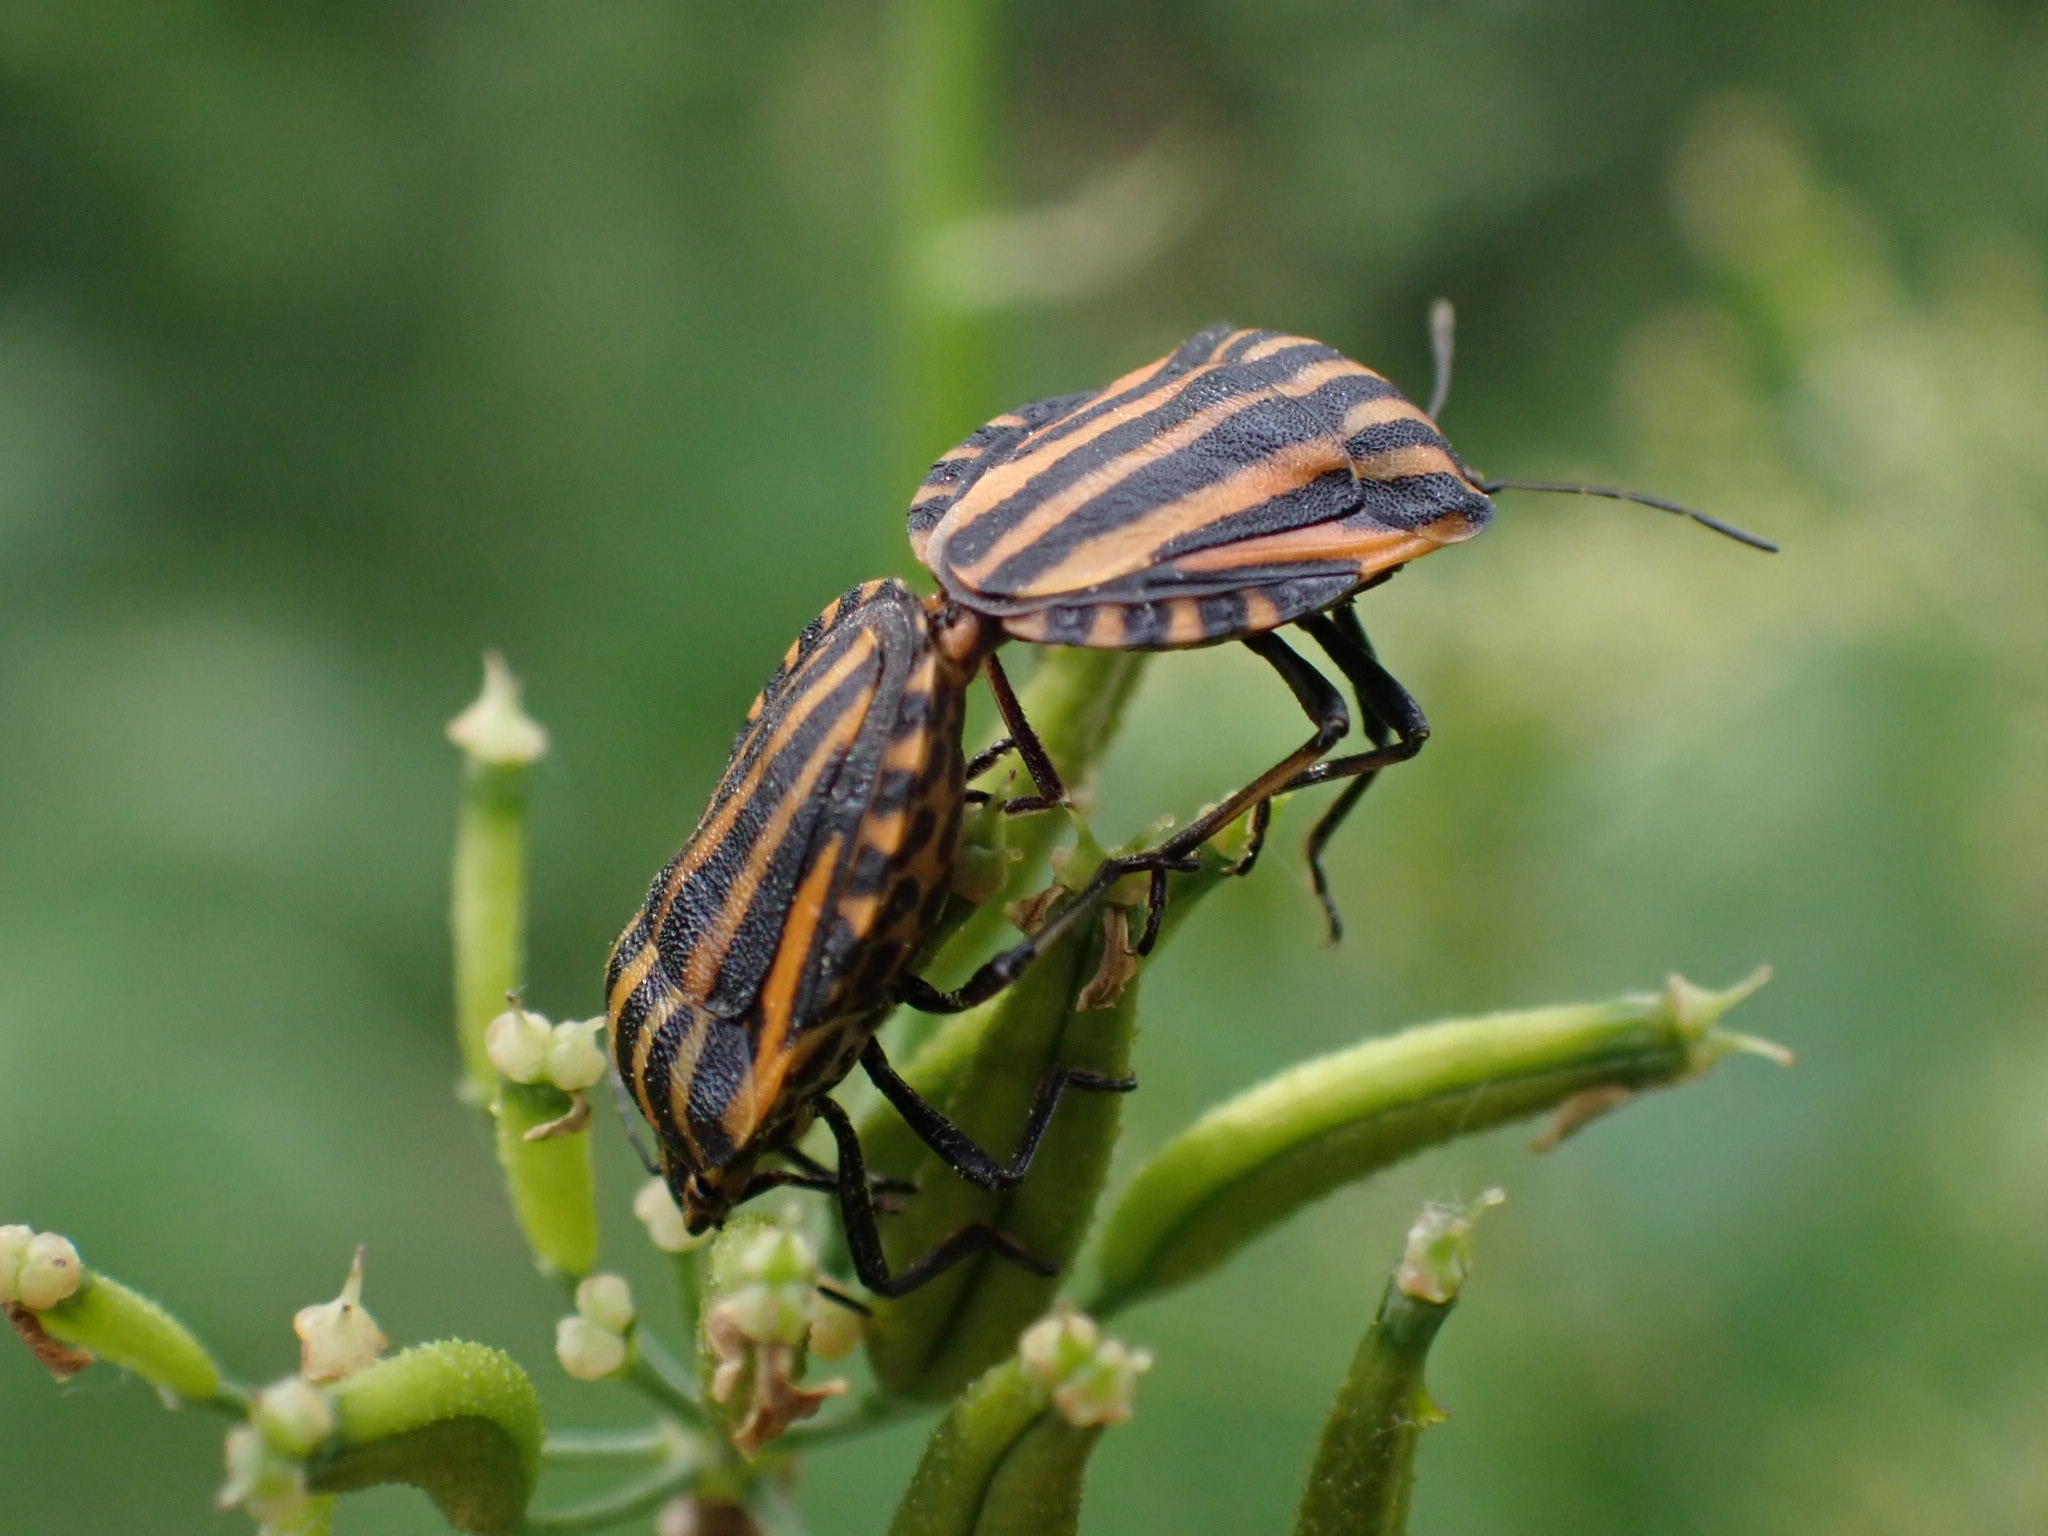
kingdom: Animalia
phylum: Arthropoda
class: Insecta
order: Hemiptera
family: Pentatomidae
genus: Graphosoma
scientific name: Graphosoma italicum
